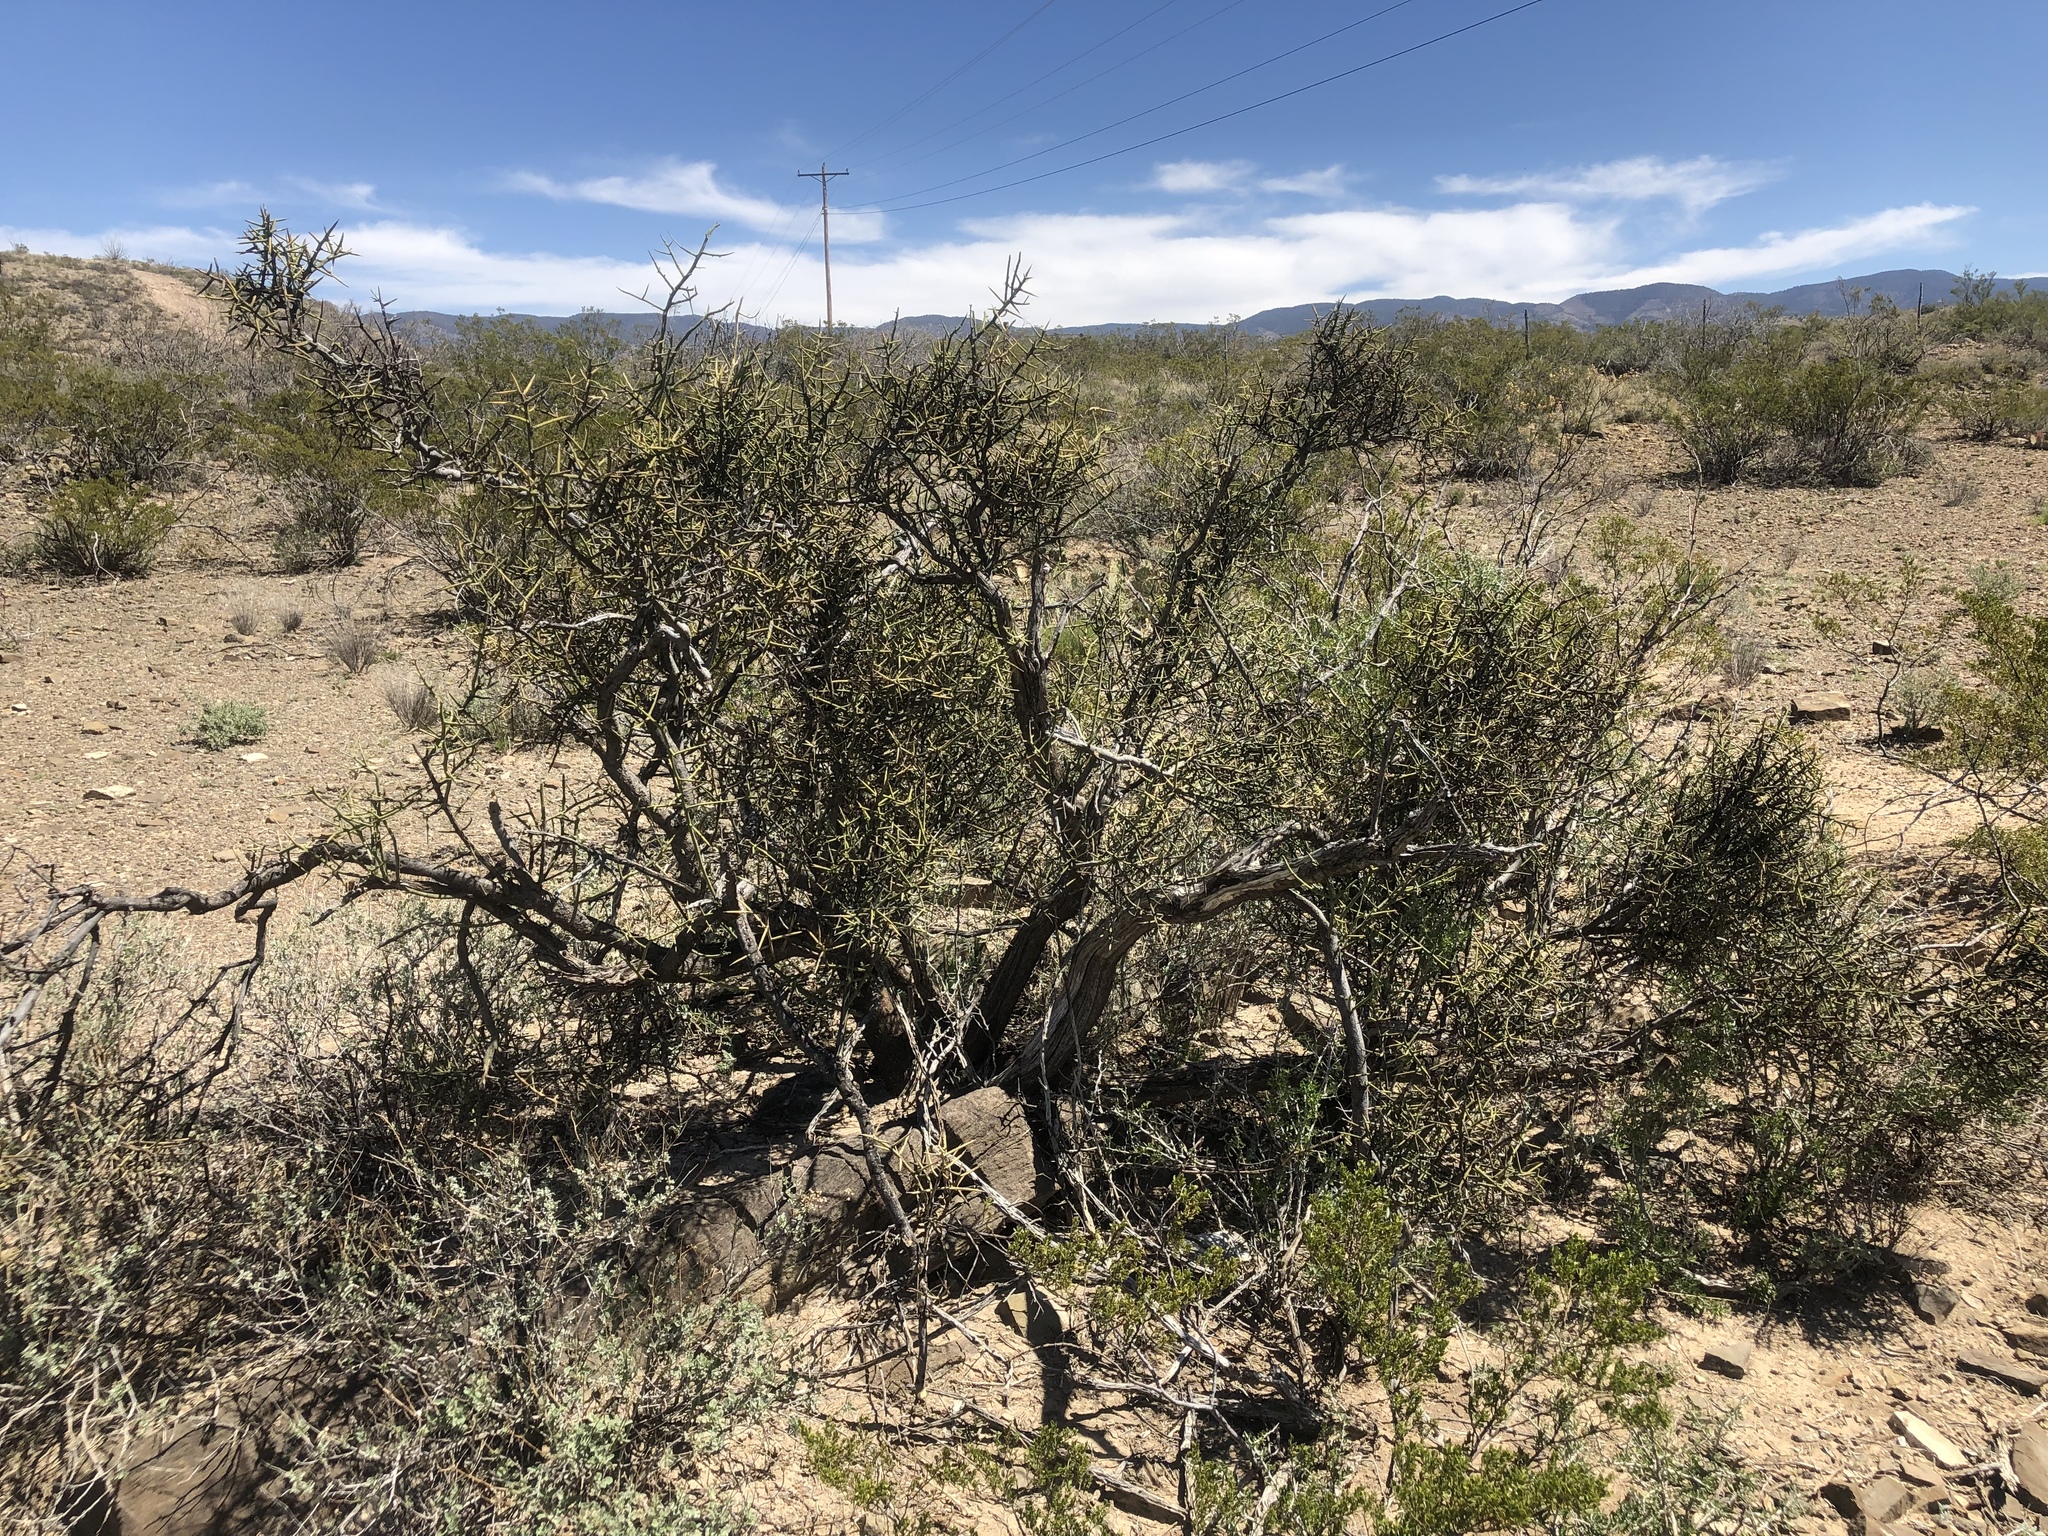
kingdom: Plantae
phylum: Tracheophyta
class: Magnoliopsida
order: Brassicales
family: Koeberliniaceae
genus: Koeberlinia
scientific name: Koeberlinia spinosa
